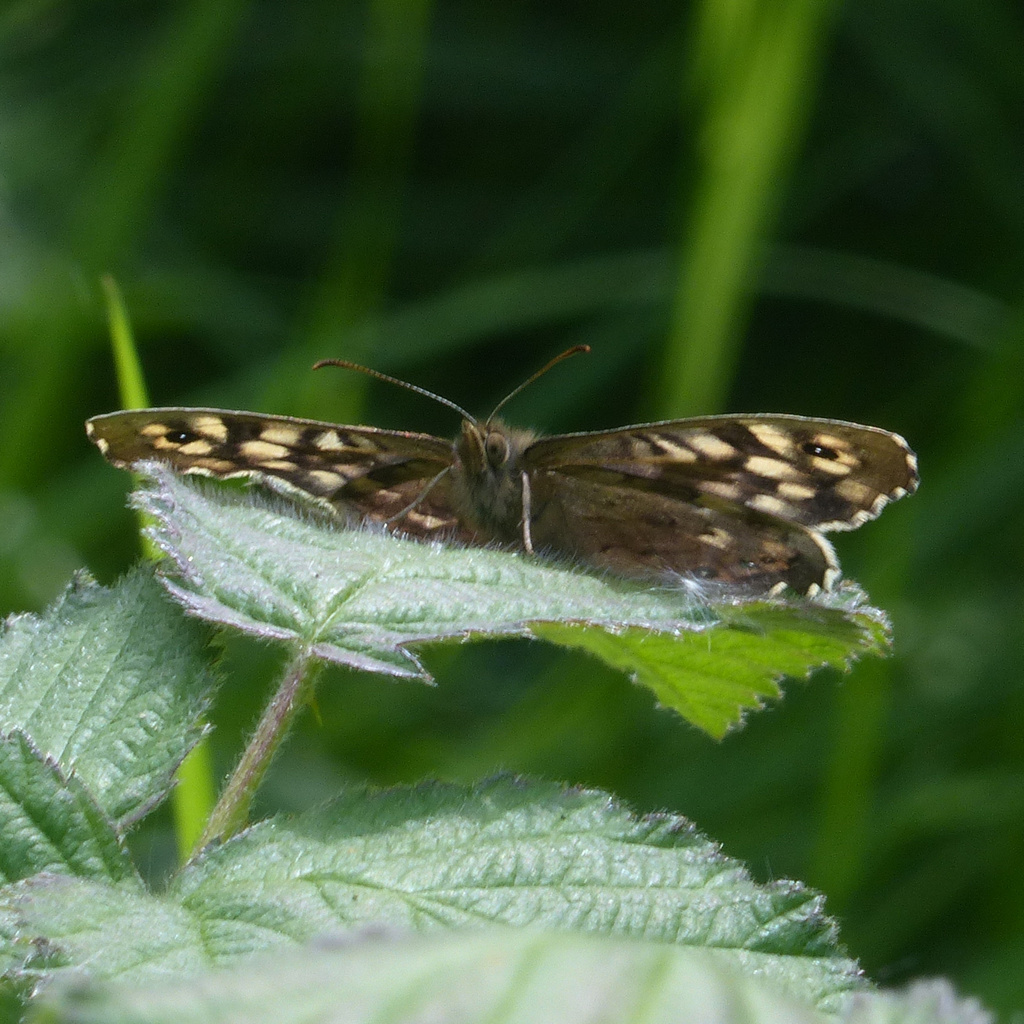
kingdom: Animalia
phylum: Arthropoda
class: Insecta
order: Lepidoptera
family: Nymphalidae
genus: Pararge
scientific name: Pararge aegeria
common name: Speckled wood
